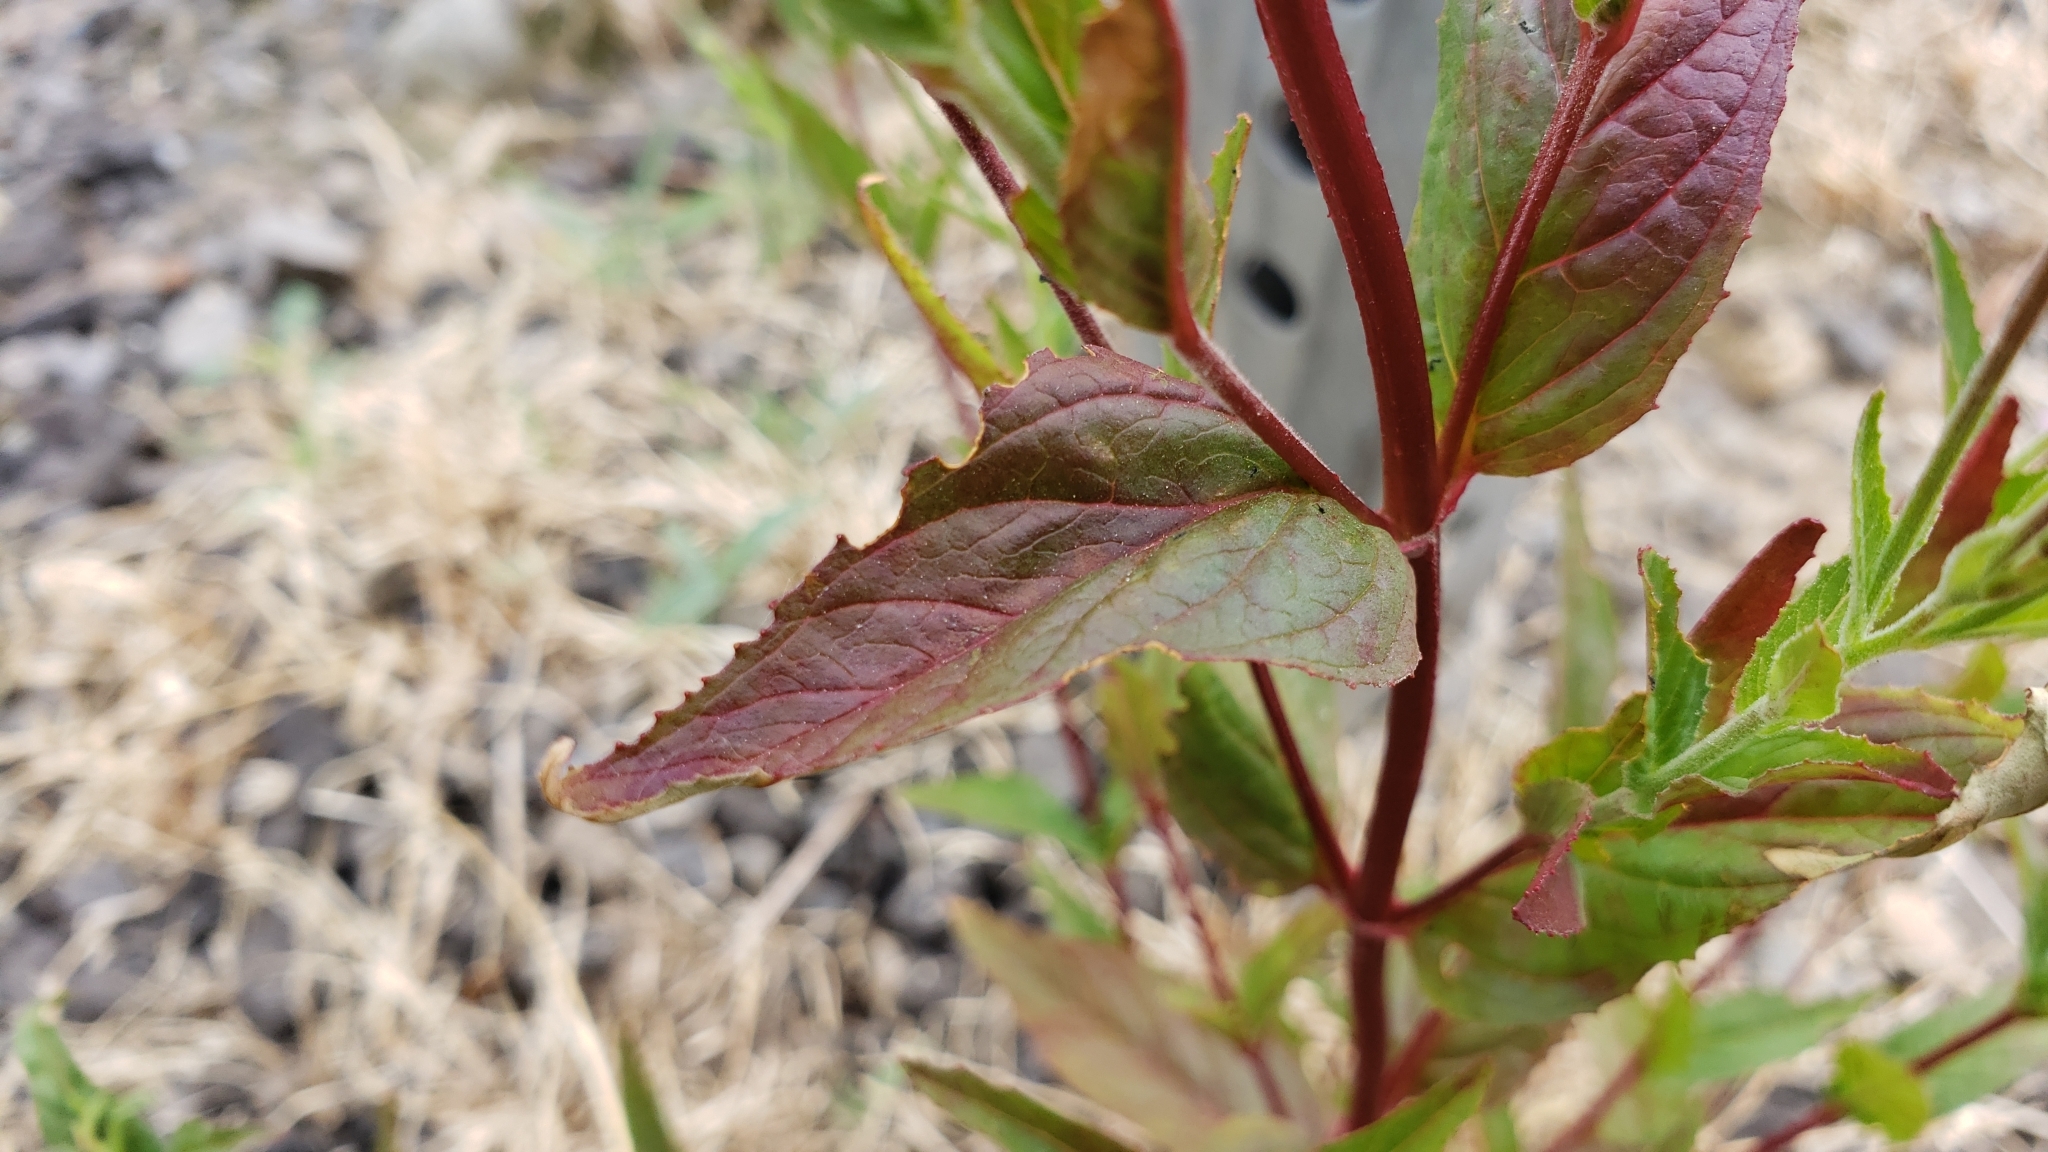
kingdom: Plantae
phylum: Tracheophyta
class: Magnoliopsida
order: Myrtales
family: Onagraceae
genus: Epilobium
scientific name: Epilobium ciliatum
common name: American willowherb
